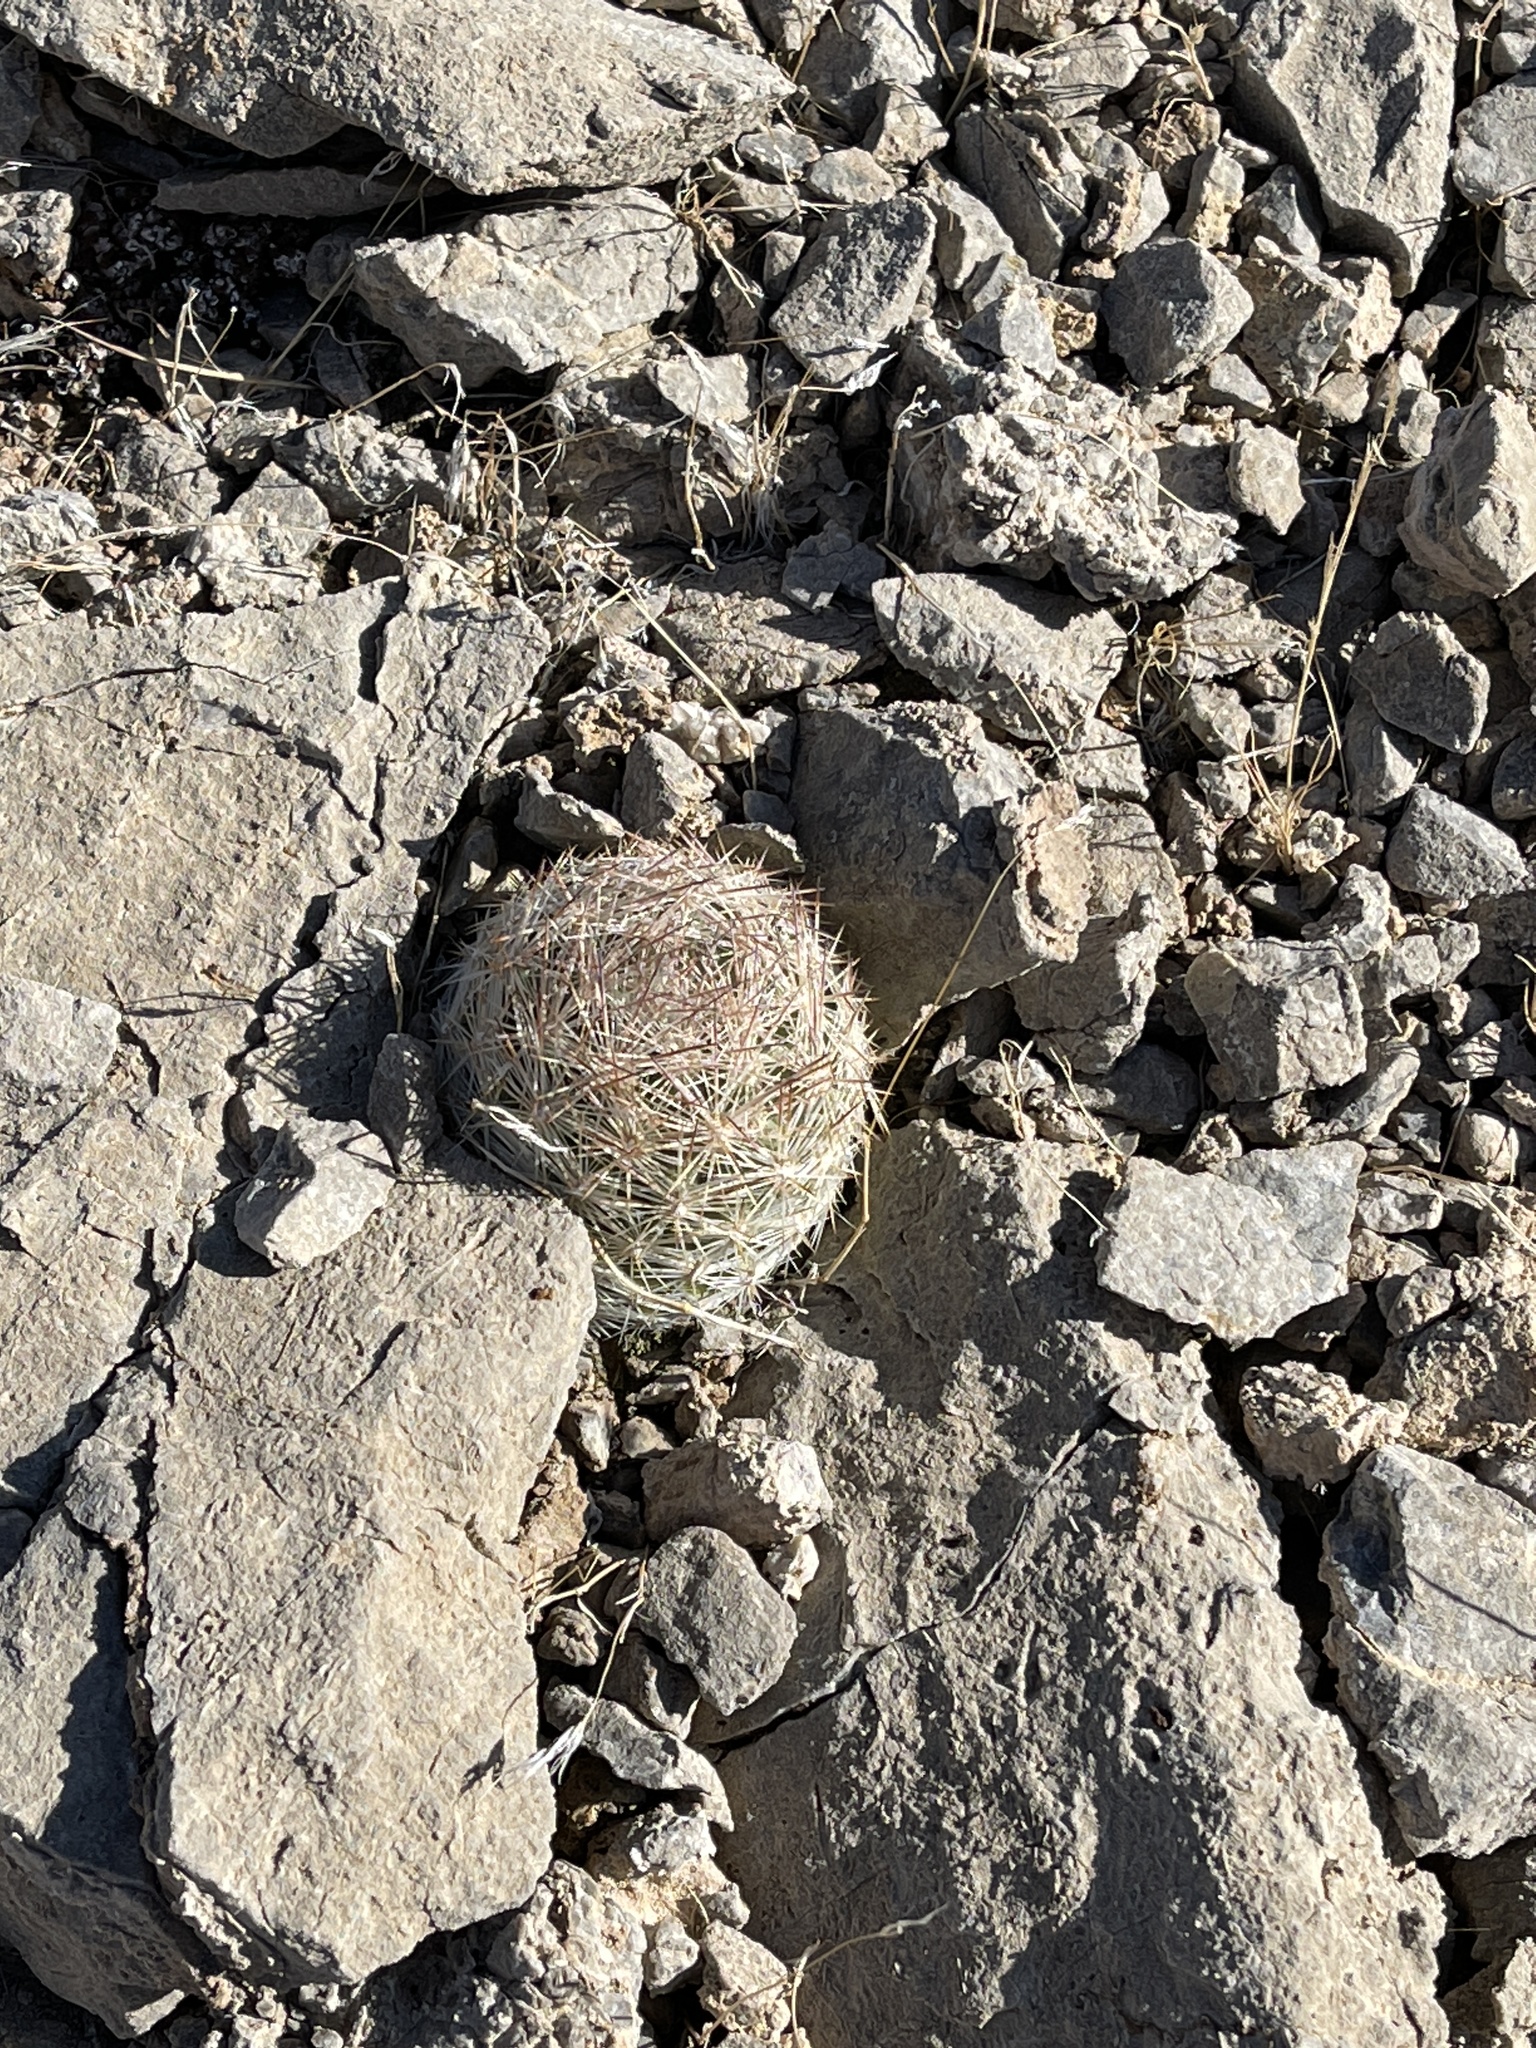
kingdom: Plantae
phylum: Tracheophyta
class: Magnoliopsida
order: Caryophyllales
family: Cactaceae
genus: Pelecyphora
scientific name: Pelecyphora dasyacantha
